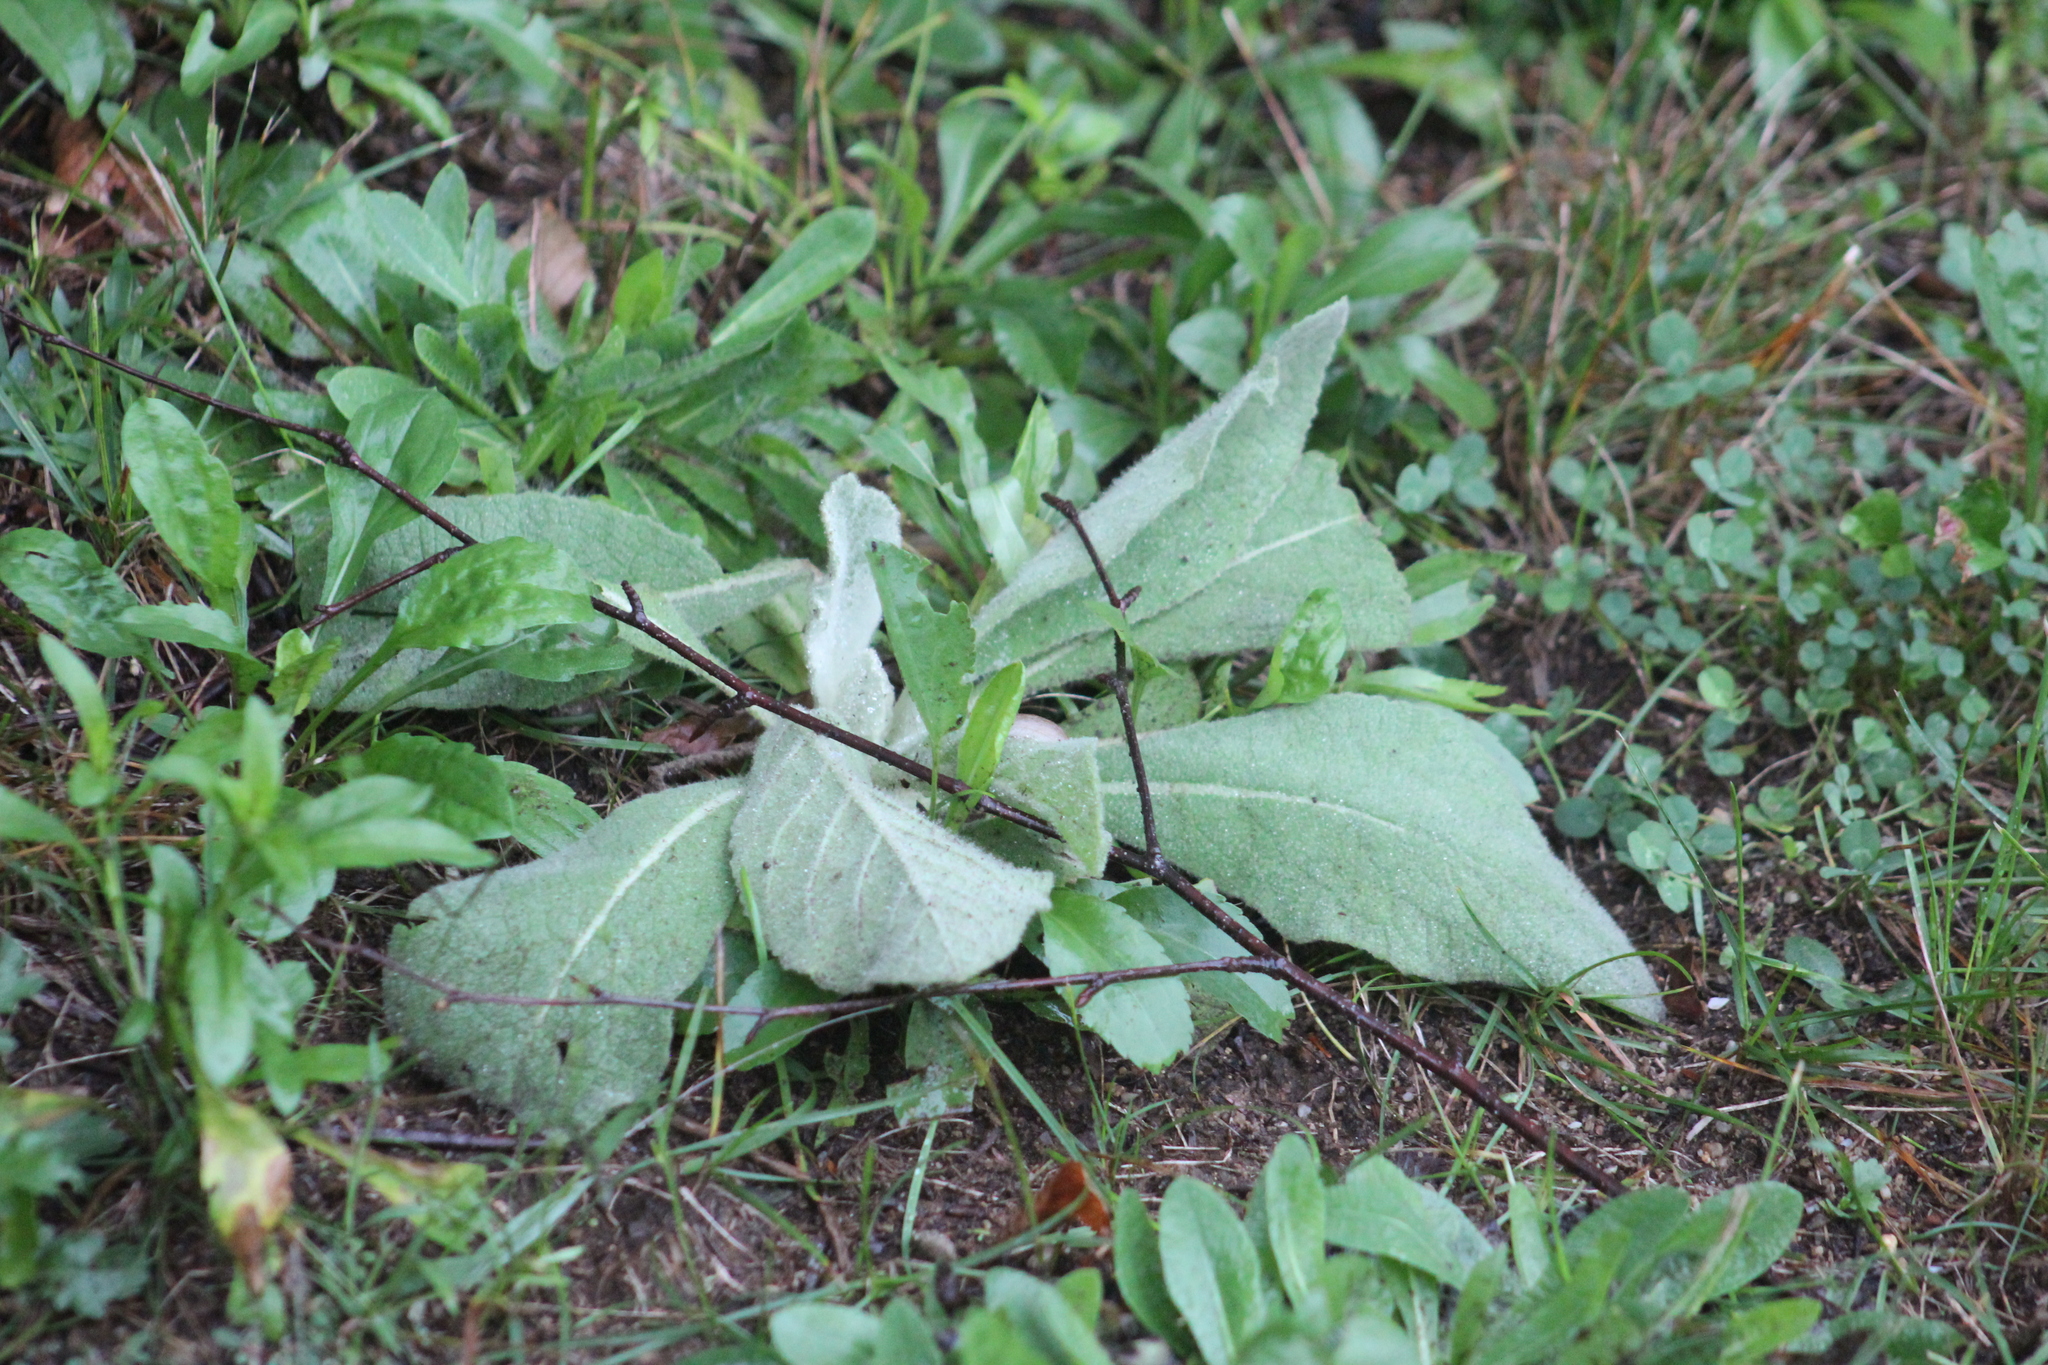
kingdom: Plantae
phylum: Tracheophyta
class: Magnoliopsida
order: Lamiales
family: Scrophulariaceae
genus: Verbascum
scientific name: Verbascum thapsus
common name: Common mullein
